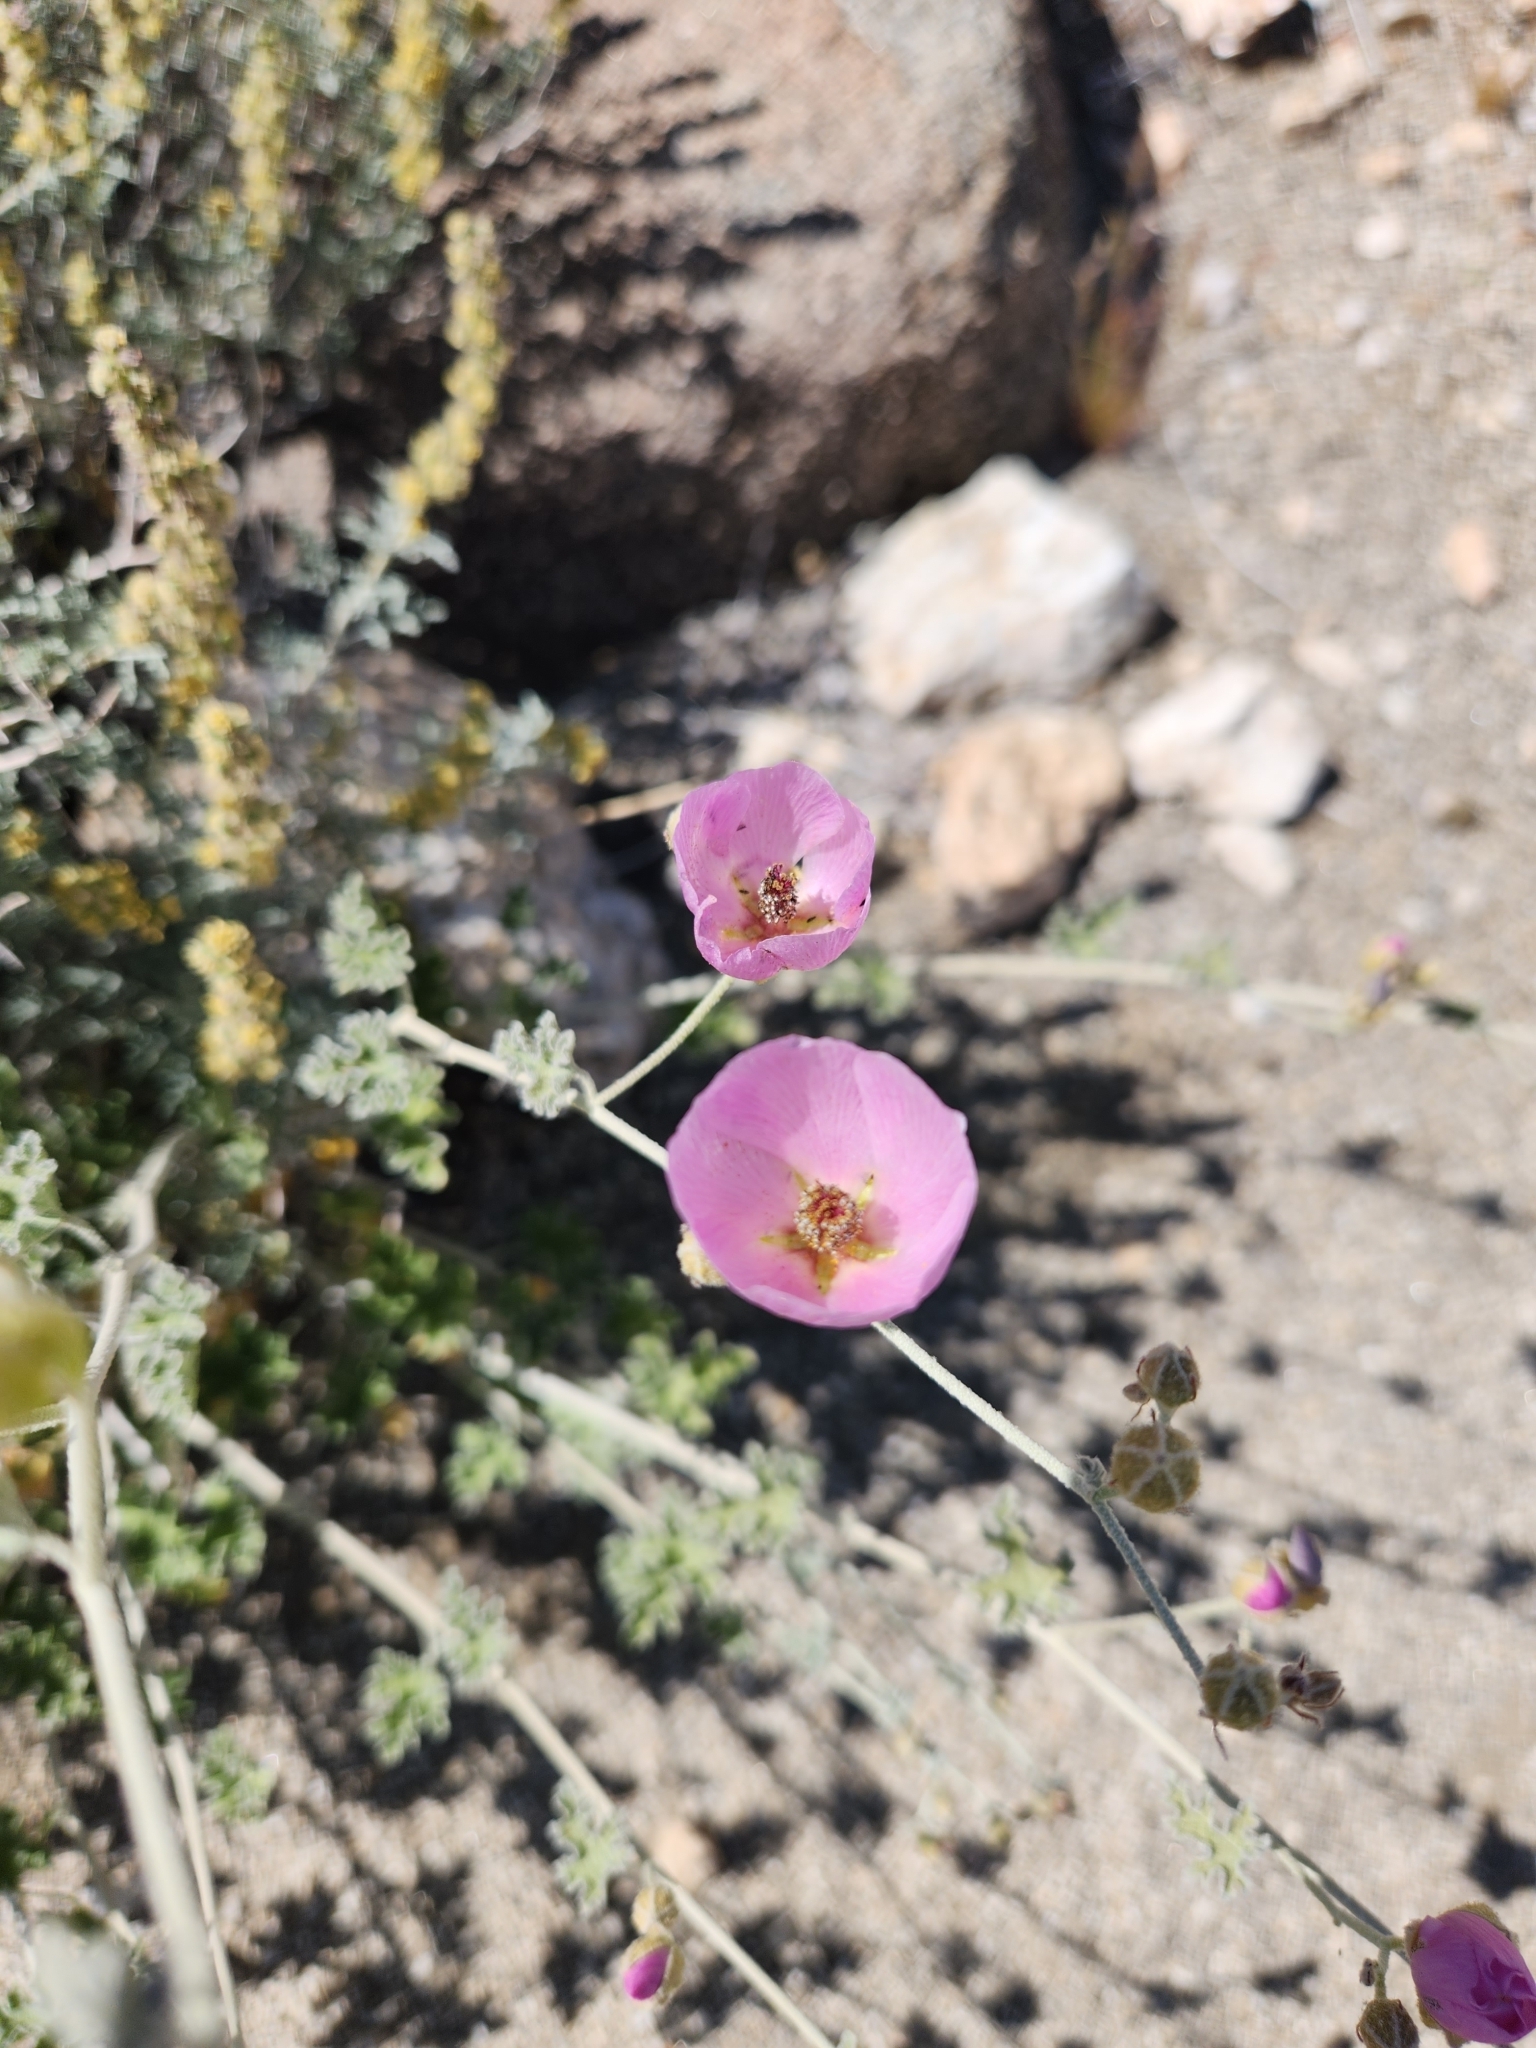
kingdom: Plantae
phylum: Tracheophyta
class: Magnoliopsida
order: Malvales
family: Malvaceae
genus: Sphaeralcea
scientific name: Sphaeralcea ambigua
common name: Apricot globe-mallow
